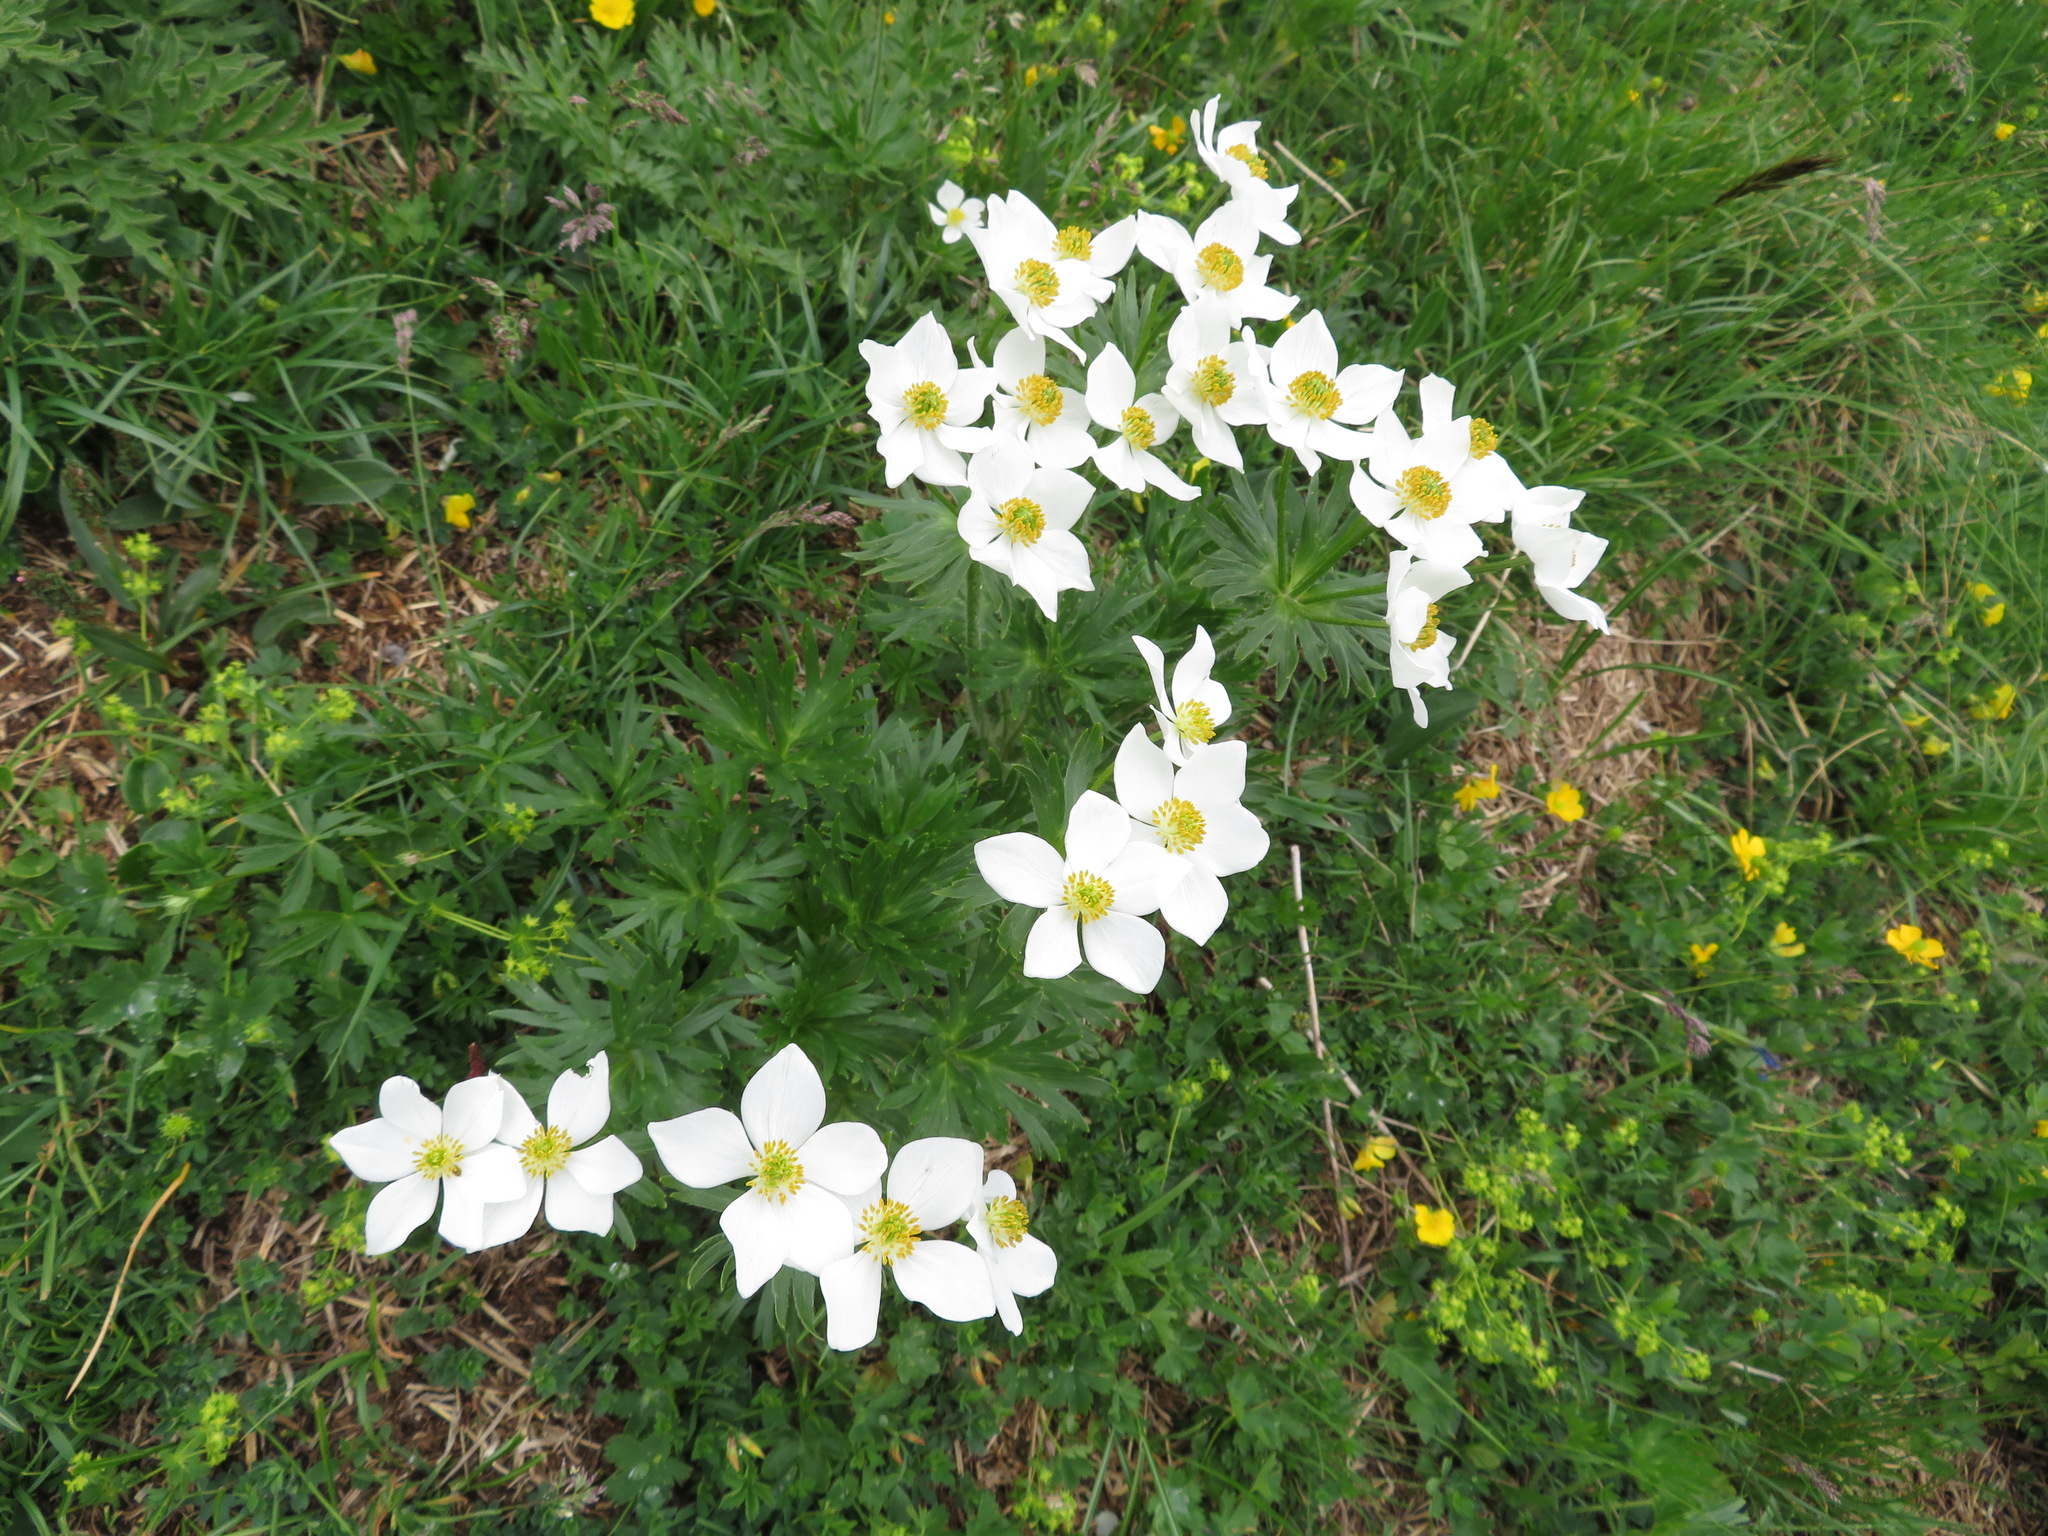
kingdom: Plantae
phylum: Tracheophyta
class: Magnoliopsida
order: Ranunculales
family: Ranunculaceae
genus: Anemonastrum
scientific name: Anemonastrum narcissiflorum
